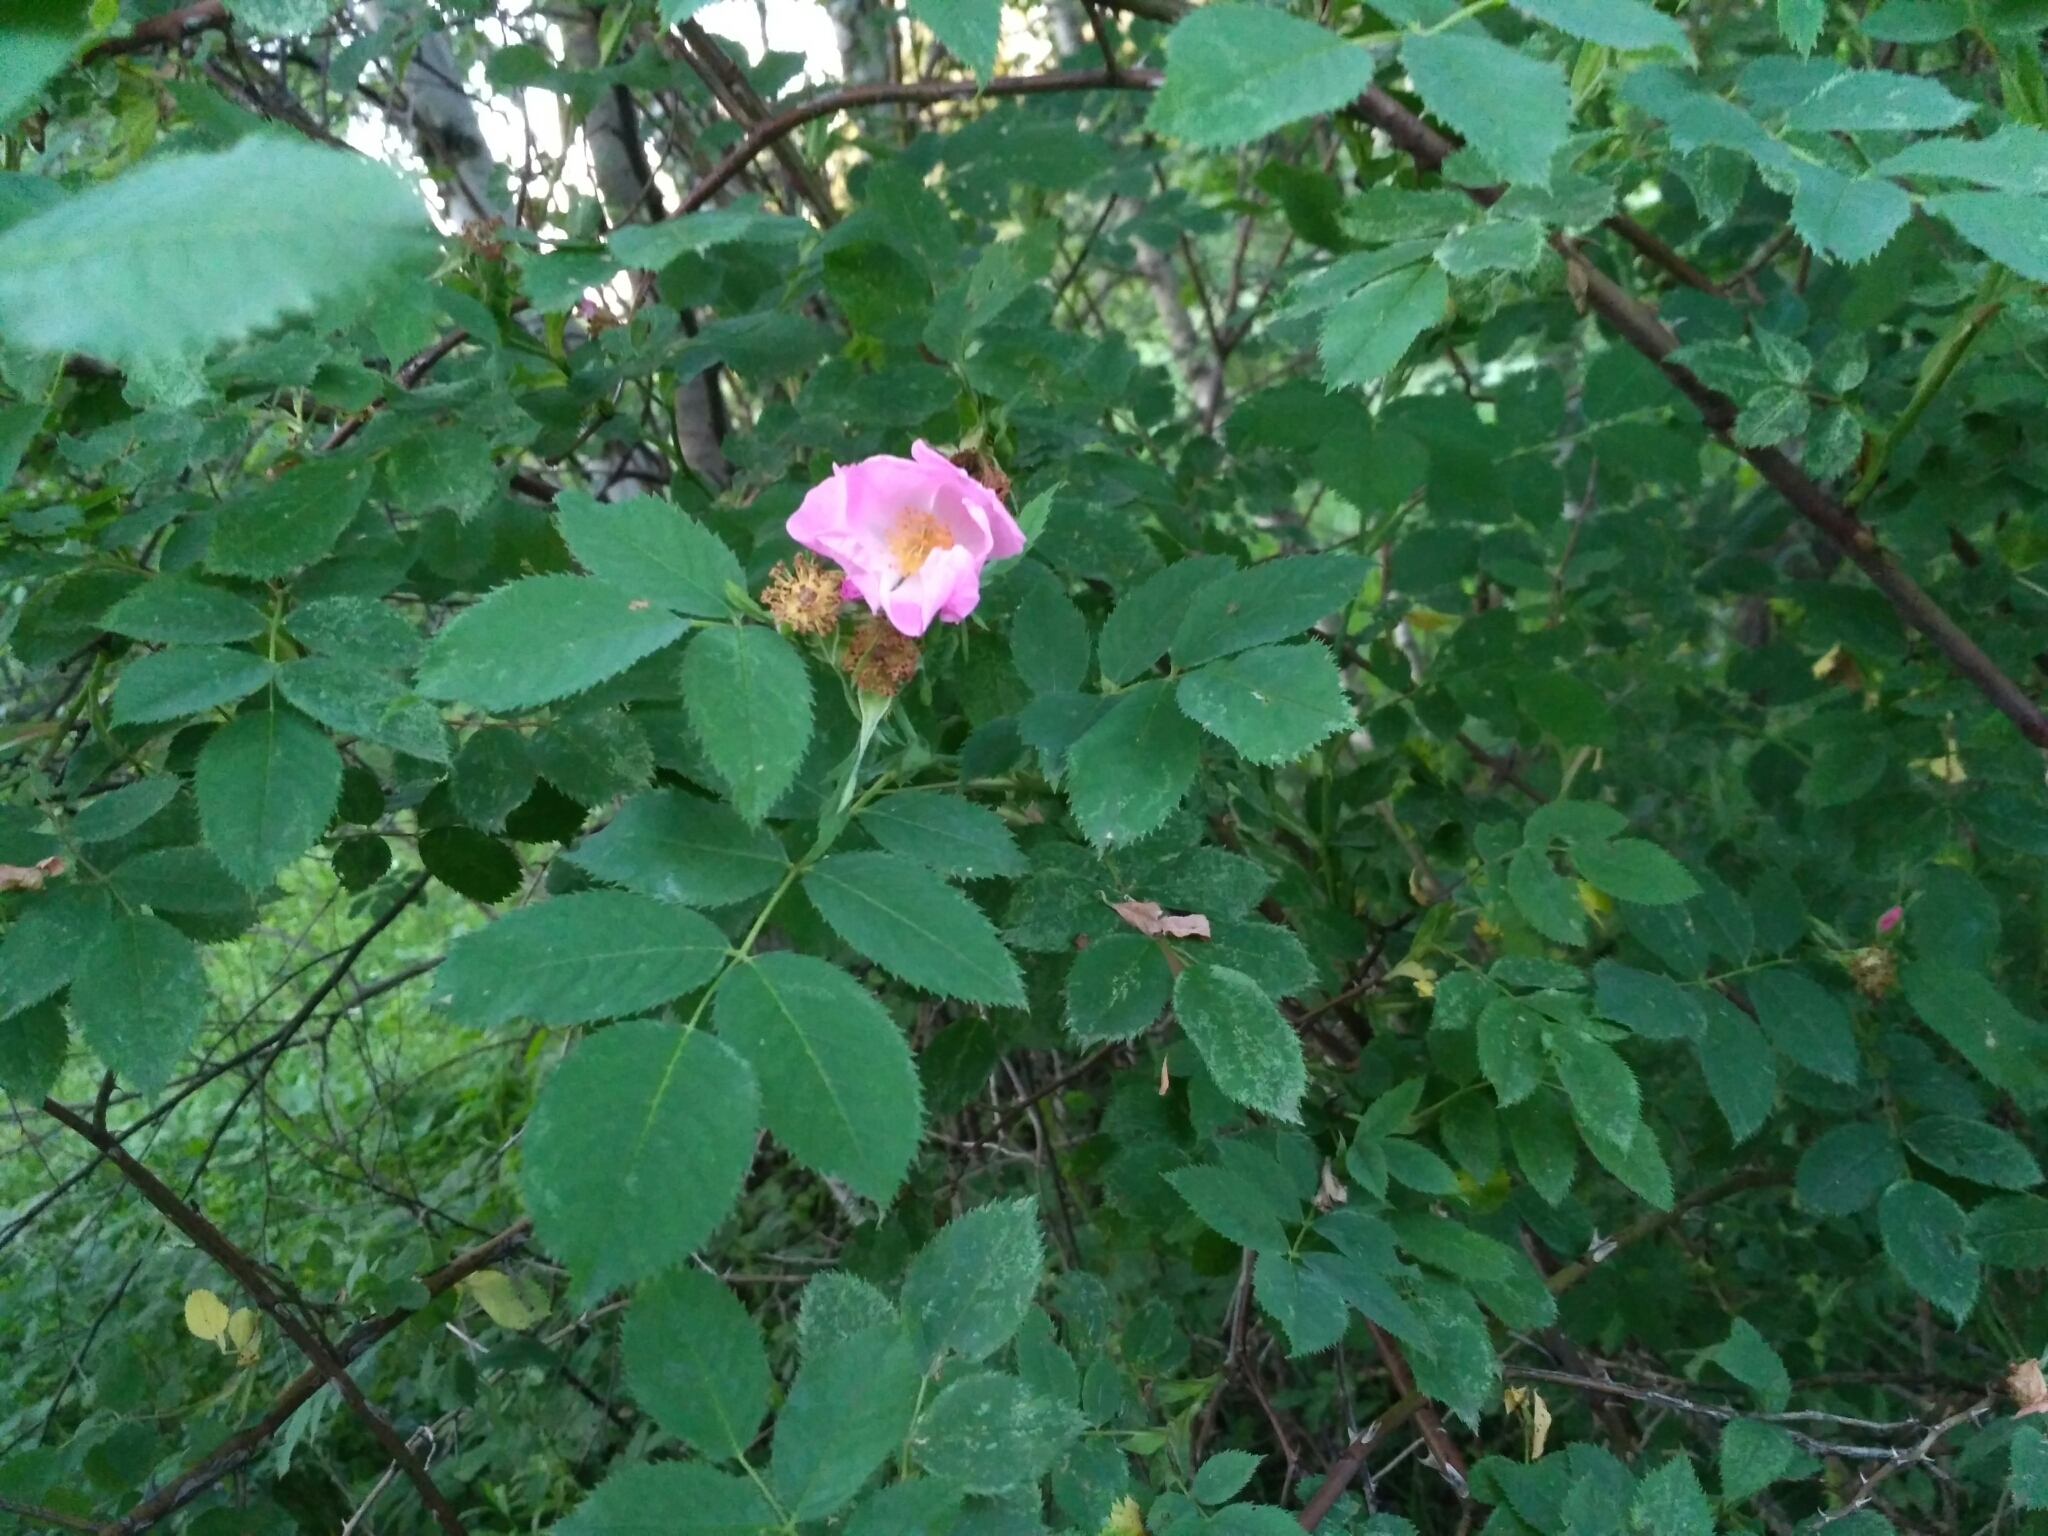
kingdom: Plantae
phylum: Tracheophyta
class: Magnoliopsida
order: Rosales
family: Rosaceae
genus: Rosa
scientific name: Rosa
